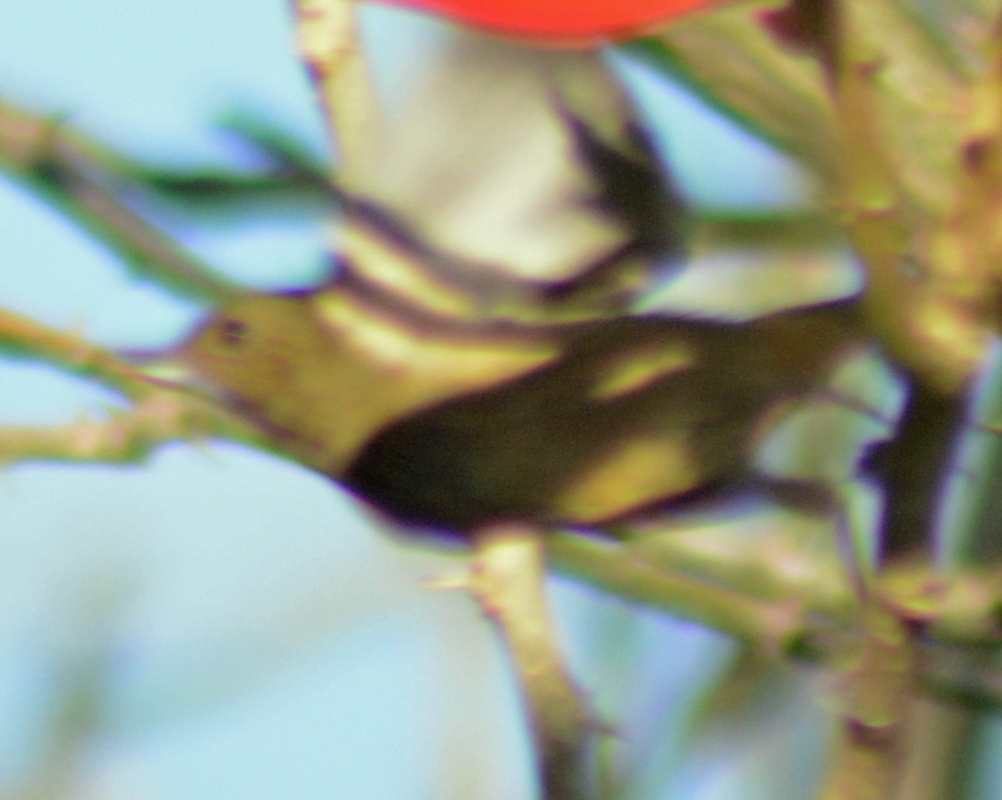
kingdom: Animalia
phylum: Chordata
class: Aves
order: Passeriformes
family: Thraupidae
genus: Diglossa
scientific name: Diglossa baritula
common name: Cinnamon-bellied flowerpiercer
